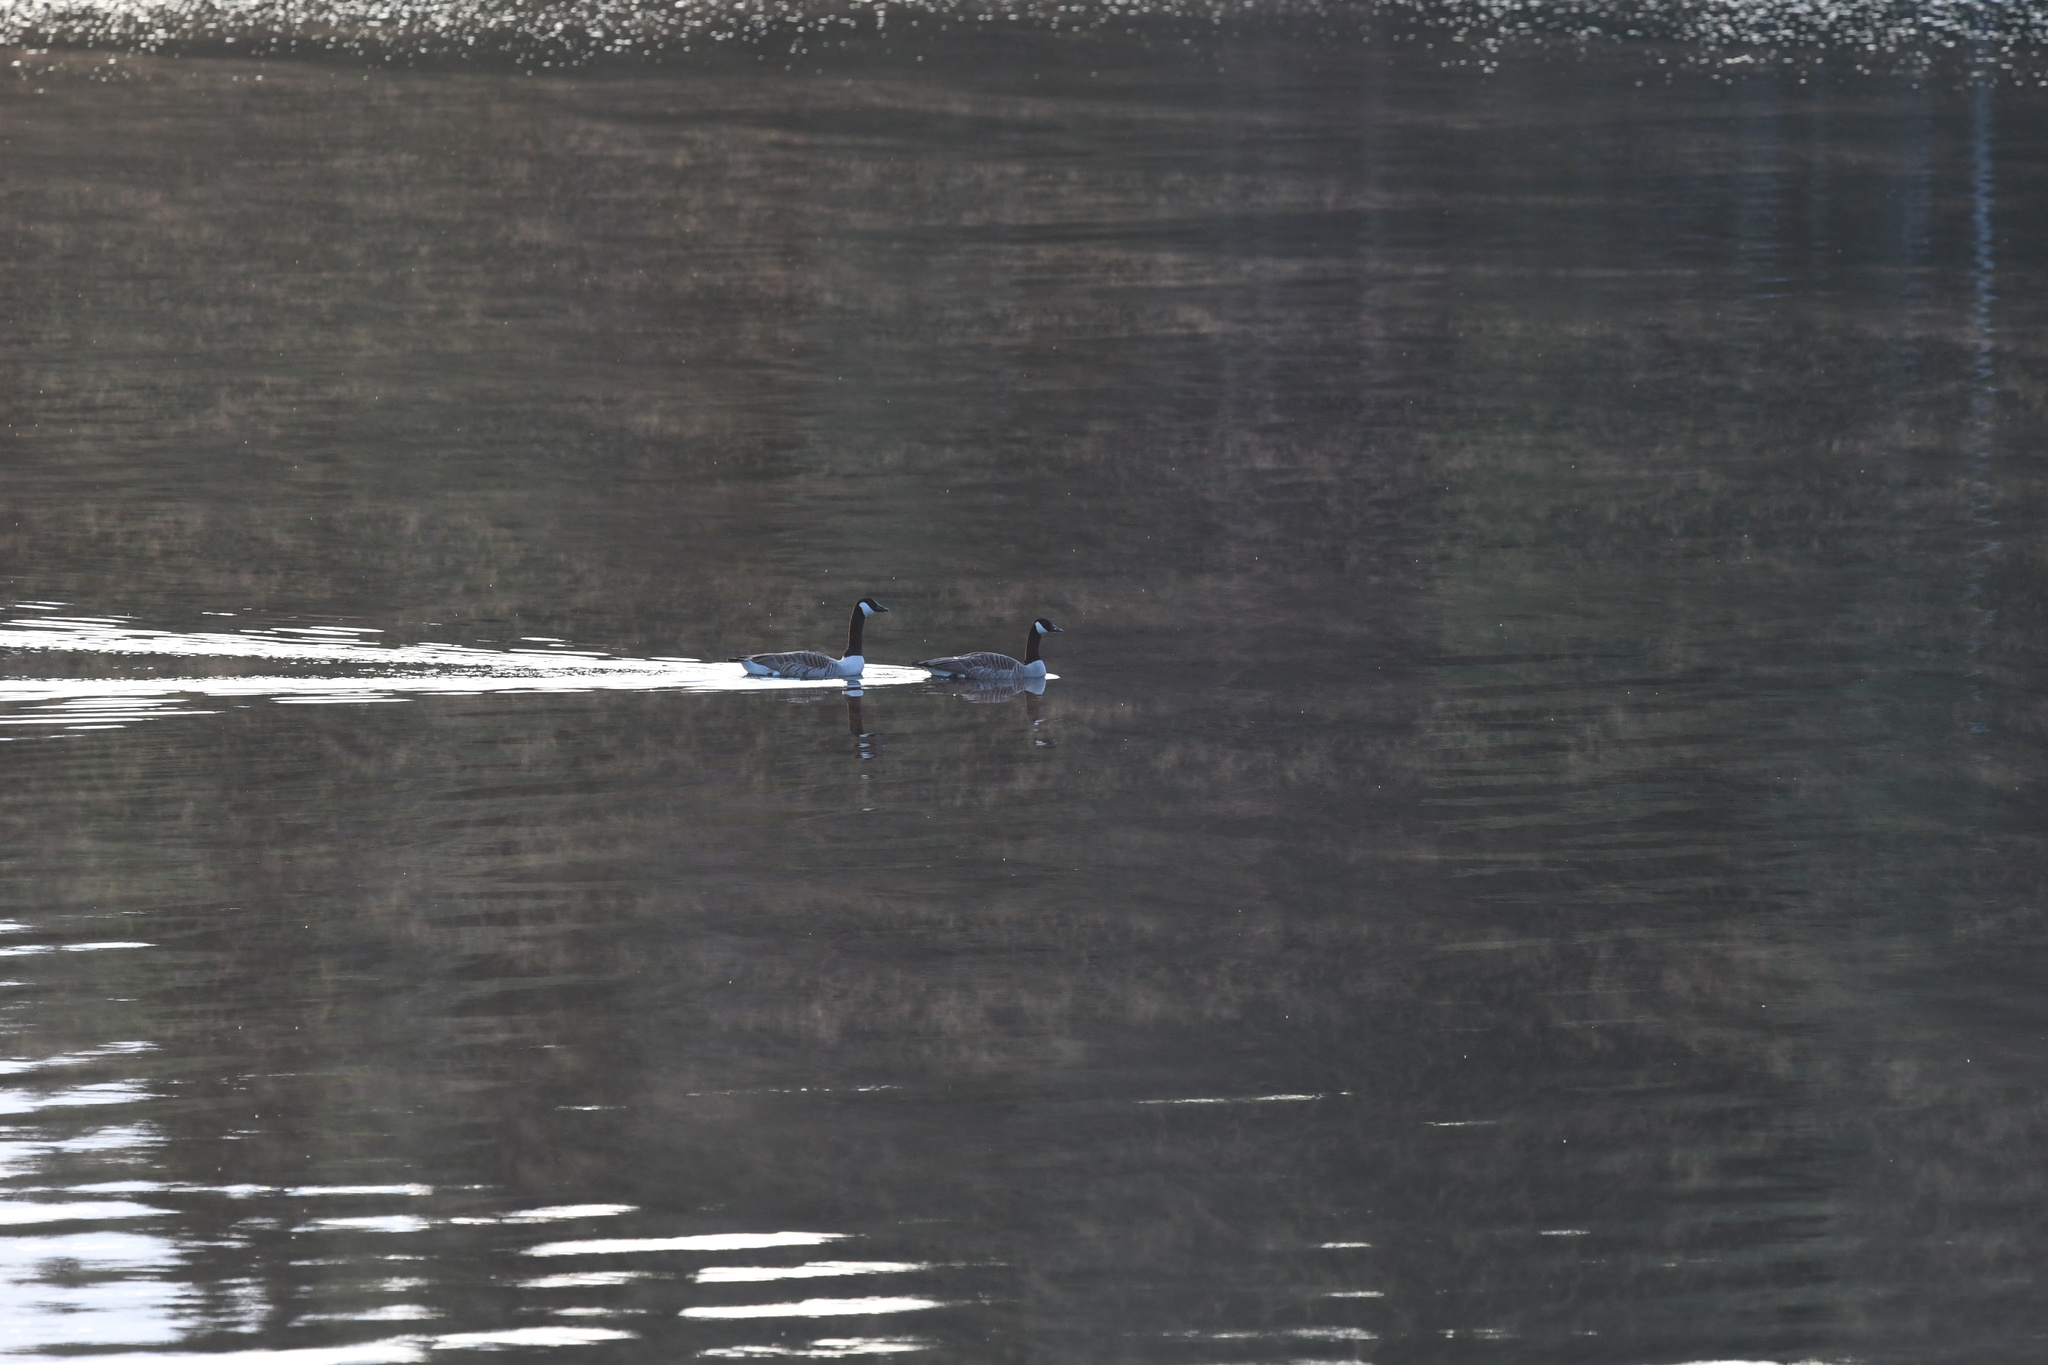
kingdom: Animalia
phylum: Chordata
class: Aves
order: Anseriformes
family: Anatidae
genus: Branta
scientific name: Branta canadensis
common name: Canada goose
